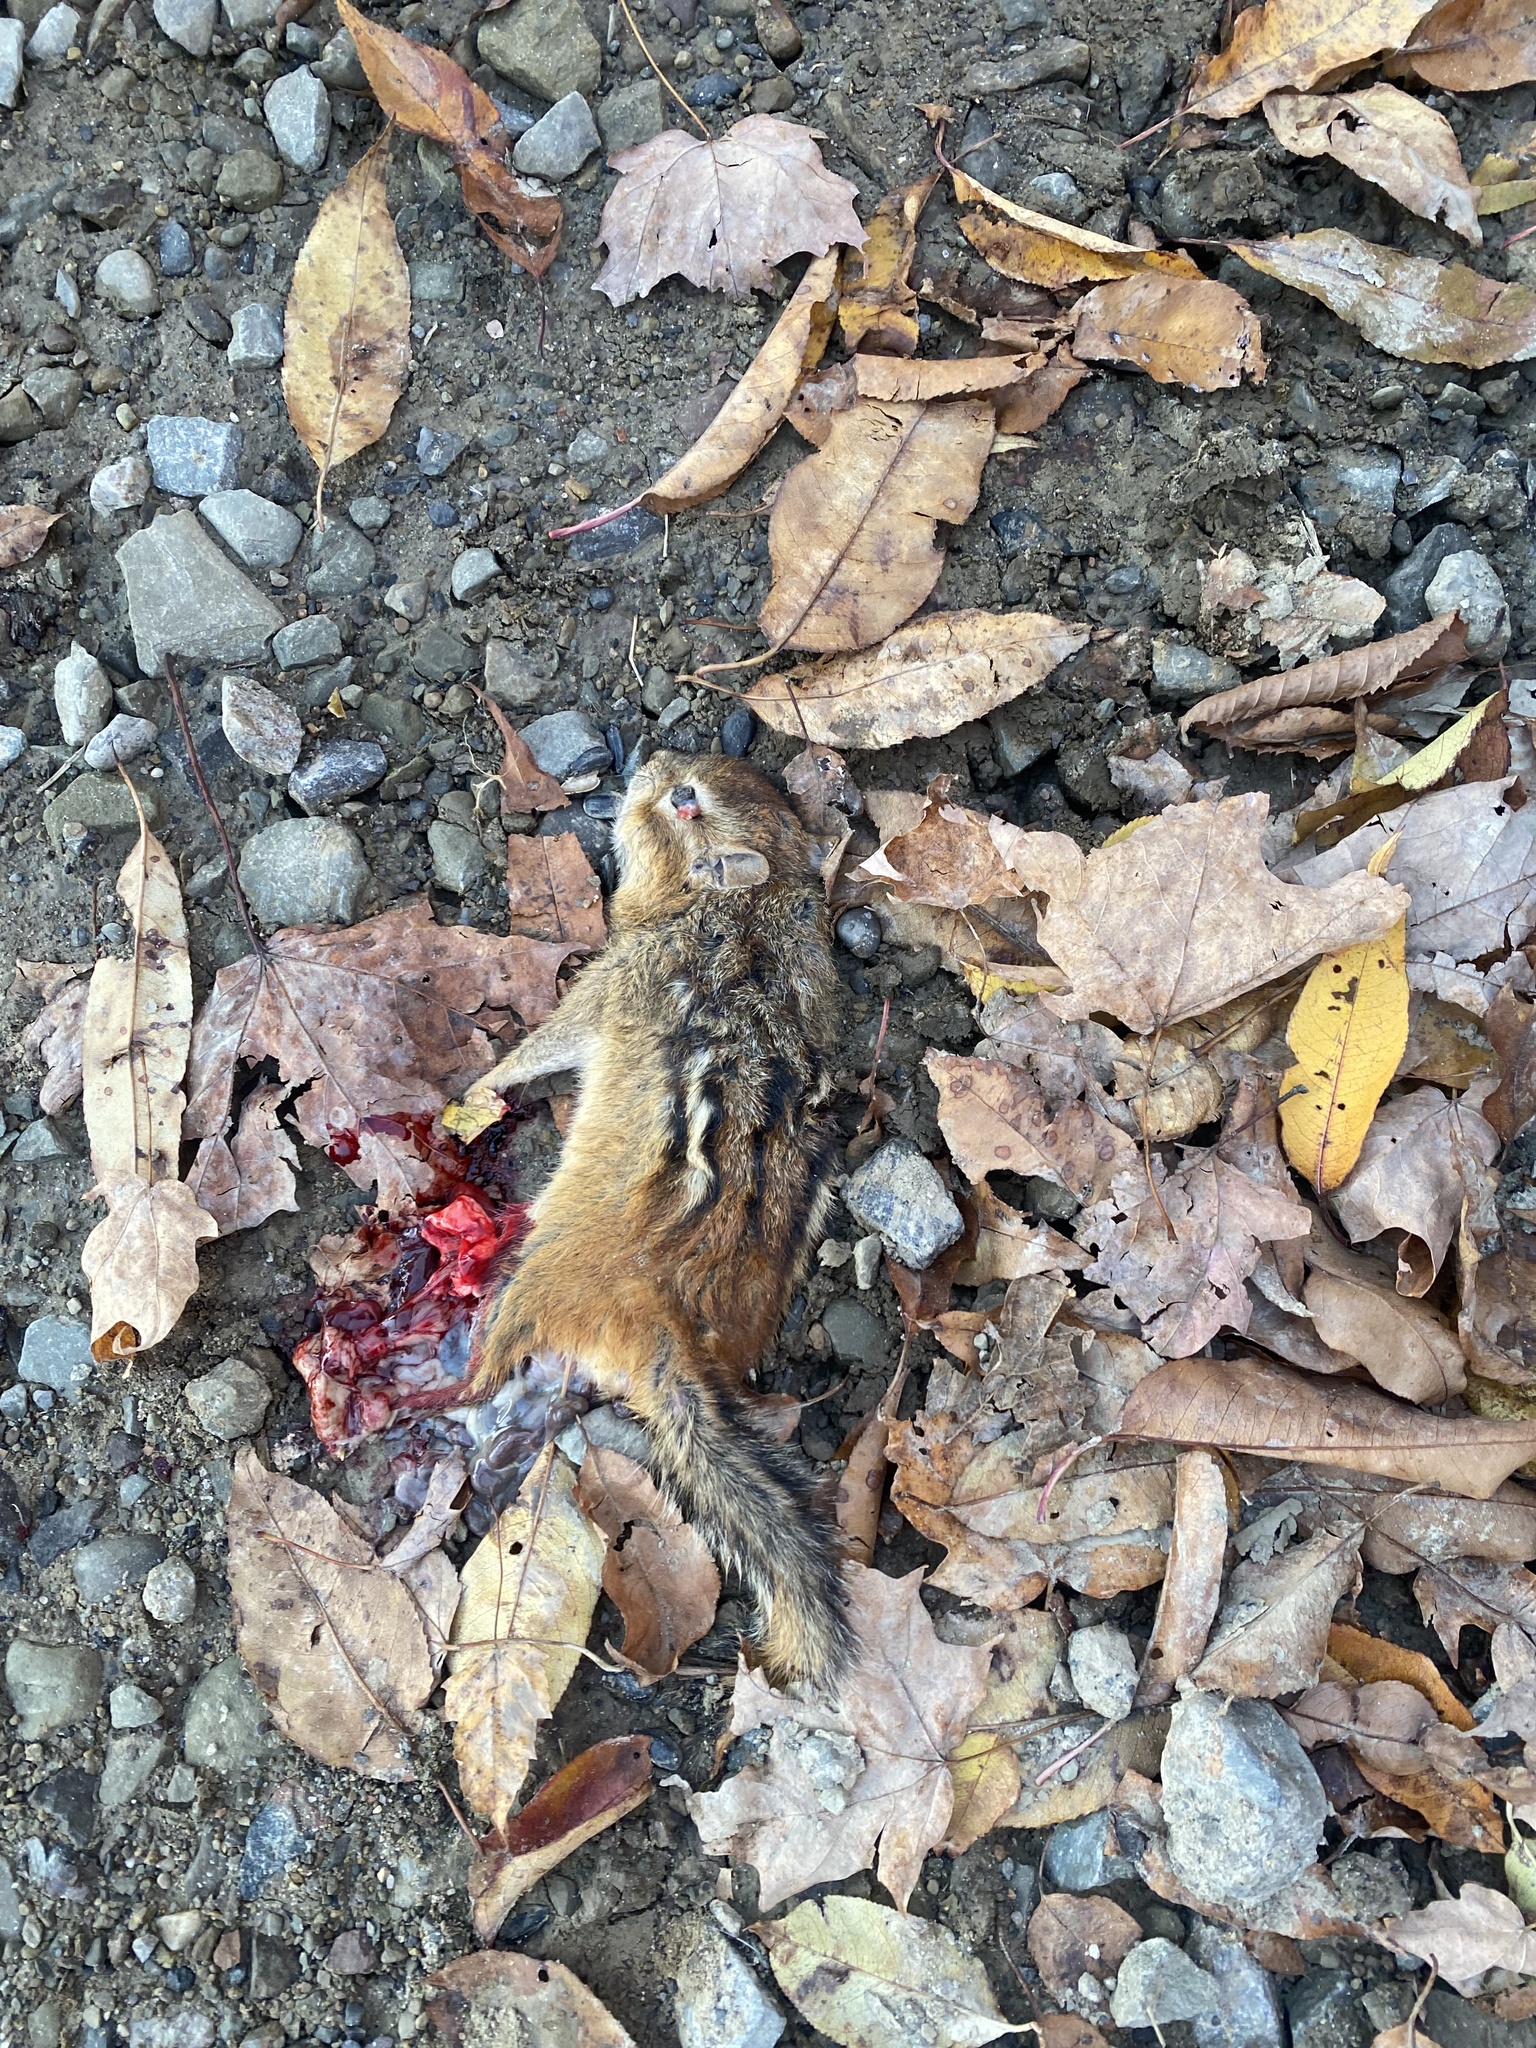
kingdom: Animalia
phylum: Chordata
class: Mammalia
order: Rodentia
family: Sciuridae
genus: Tamias
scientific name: Tamias striatus
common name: Eastern chipmunk
